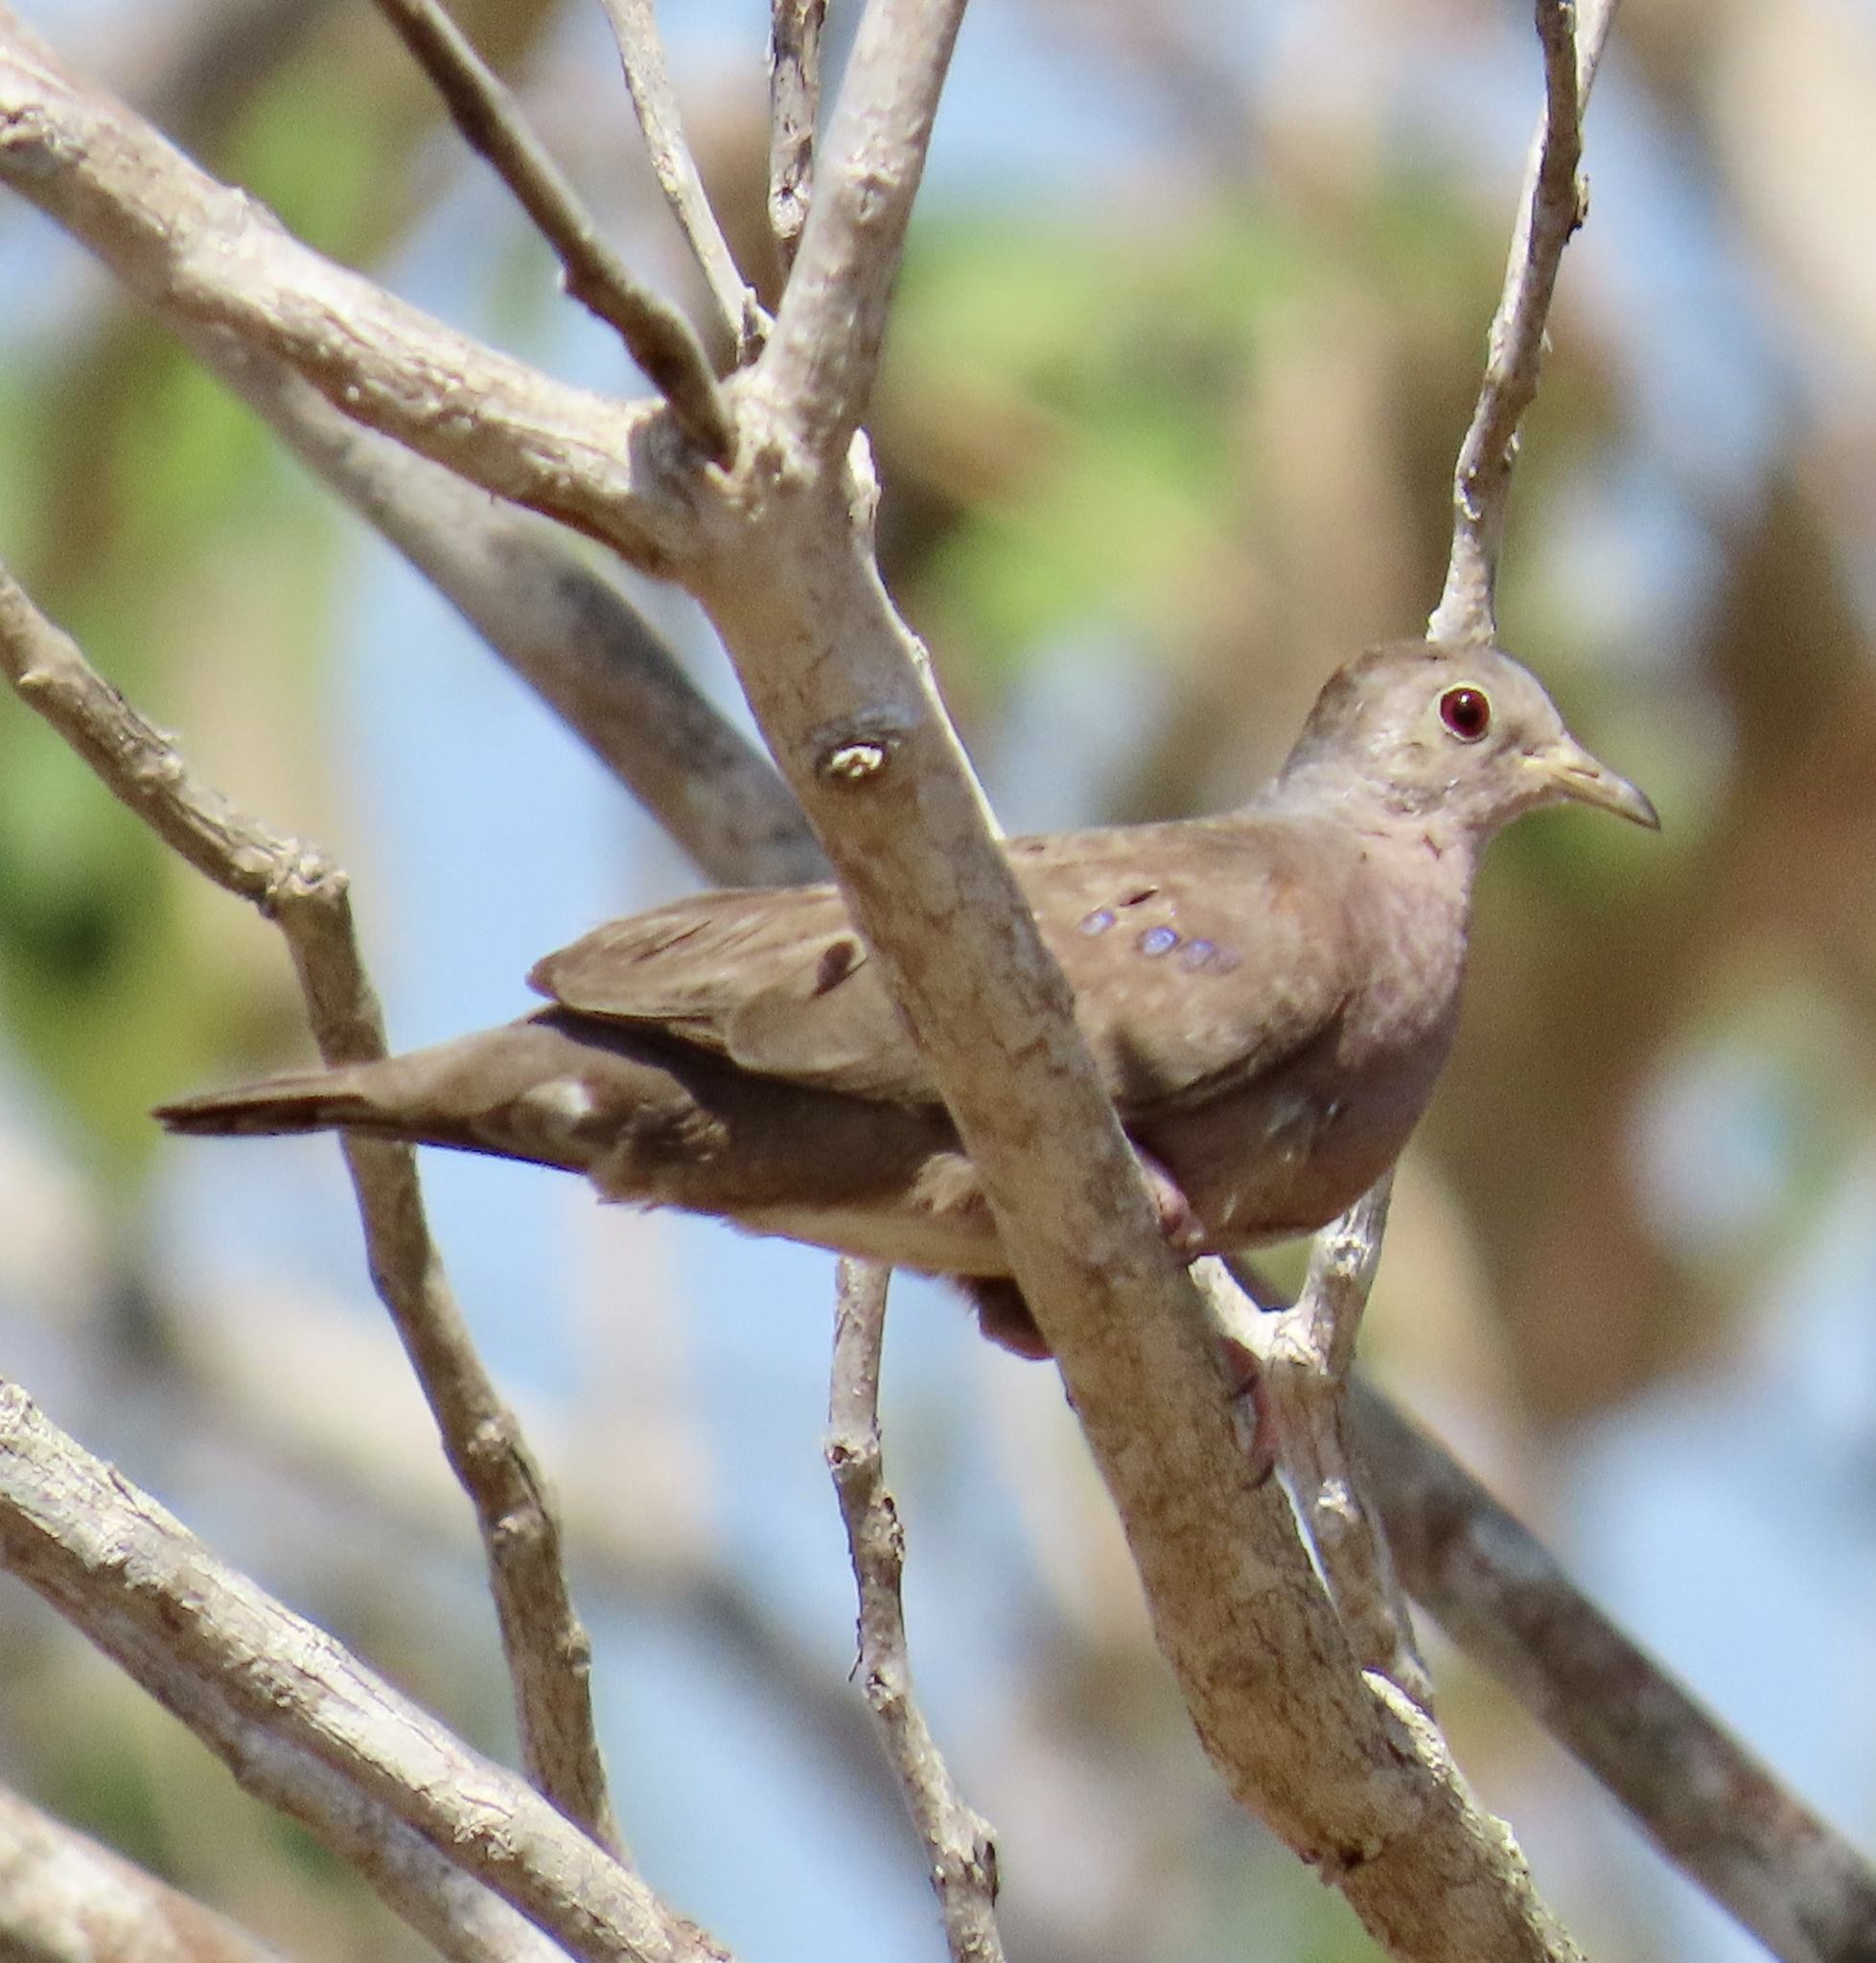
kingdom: Animalia
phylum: Chordata
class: Aves
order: Columbiformes
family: Columbidae
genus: Columbina
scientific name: Columbina talpacoti
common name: Ruddy ground dove
